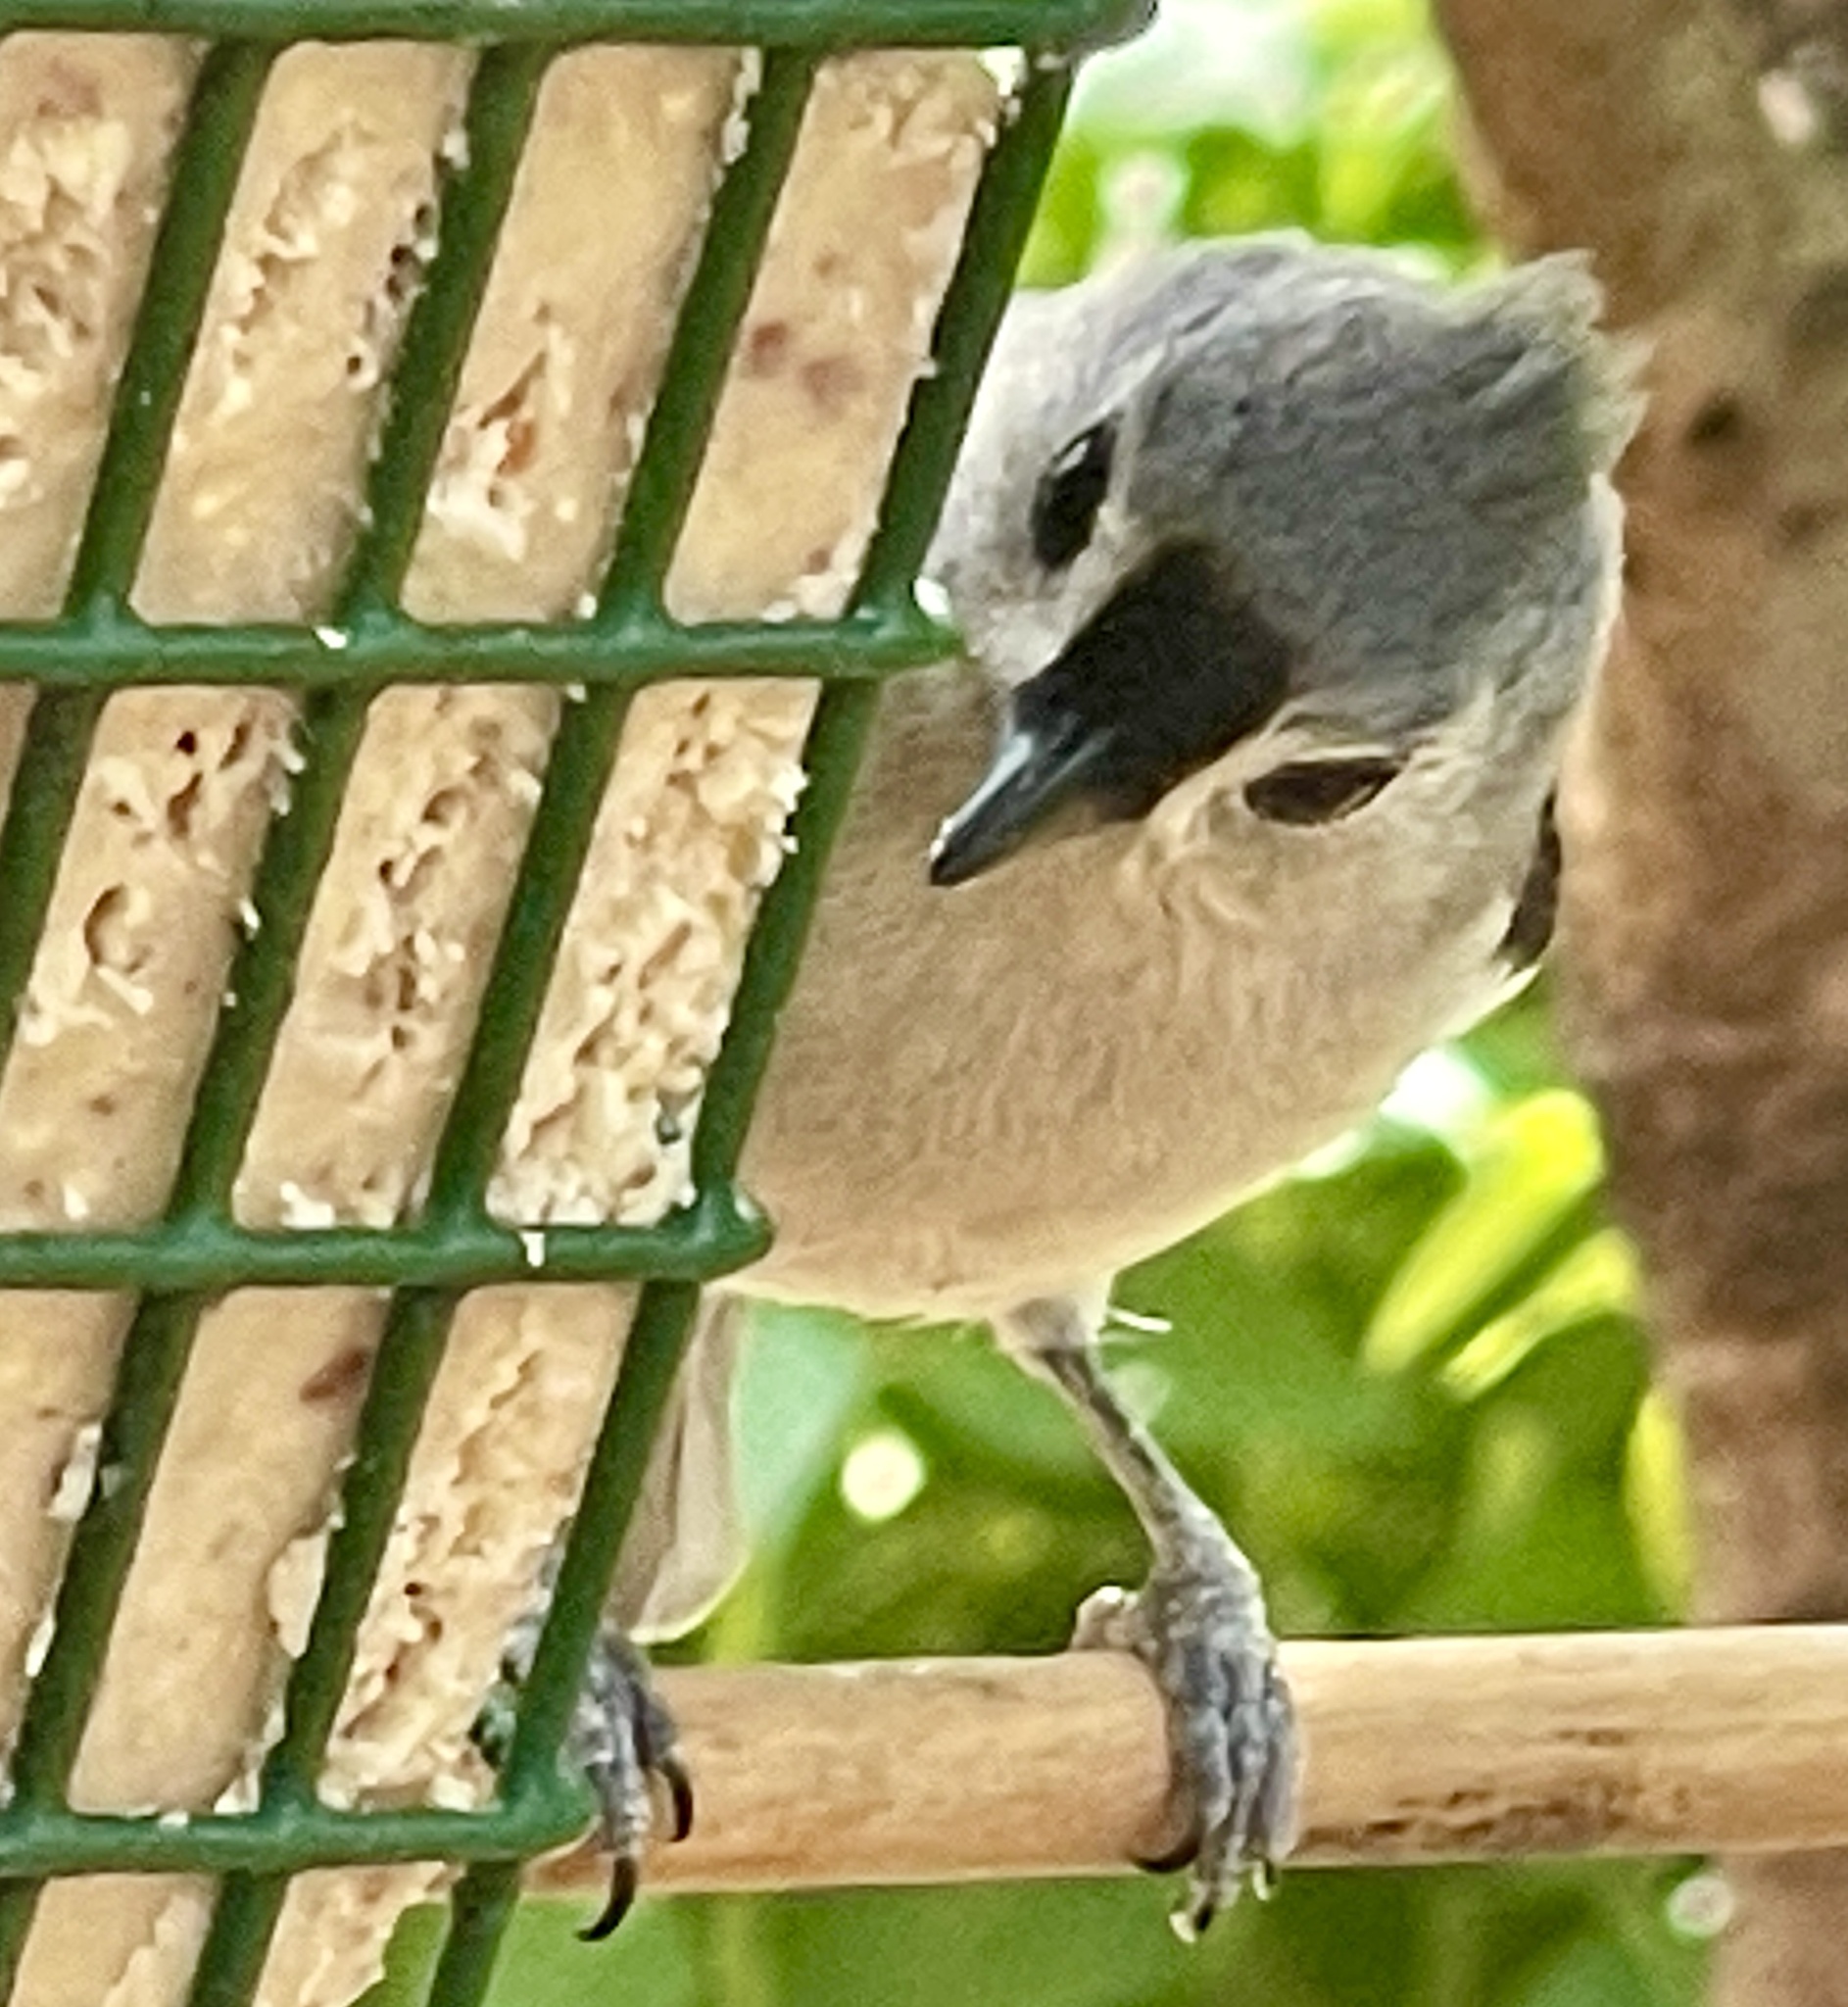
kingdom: Animalia
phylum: Chordata
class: Aves
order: Passeriformes
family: Paridae
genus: Baeolophus
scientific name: Baeolophus bicolor
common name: Tufted titmouse
